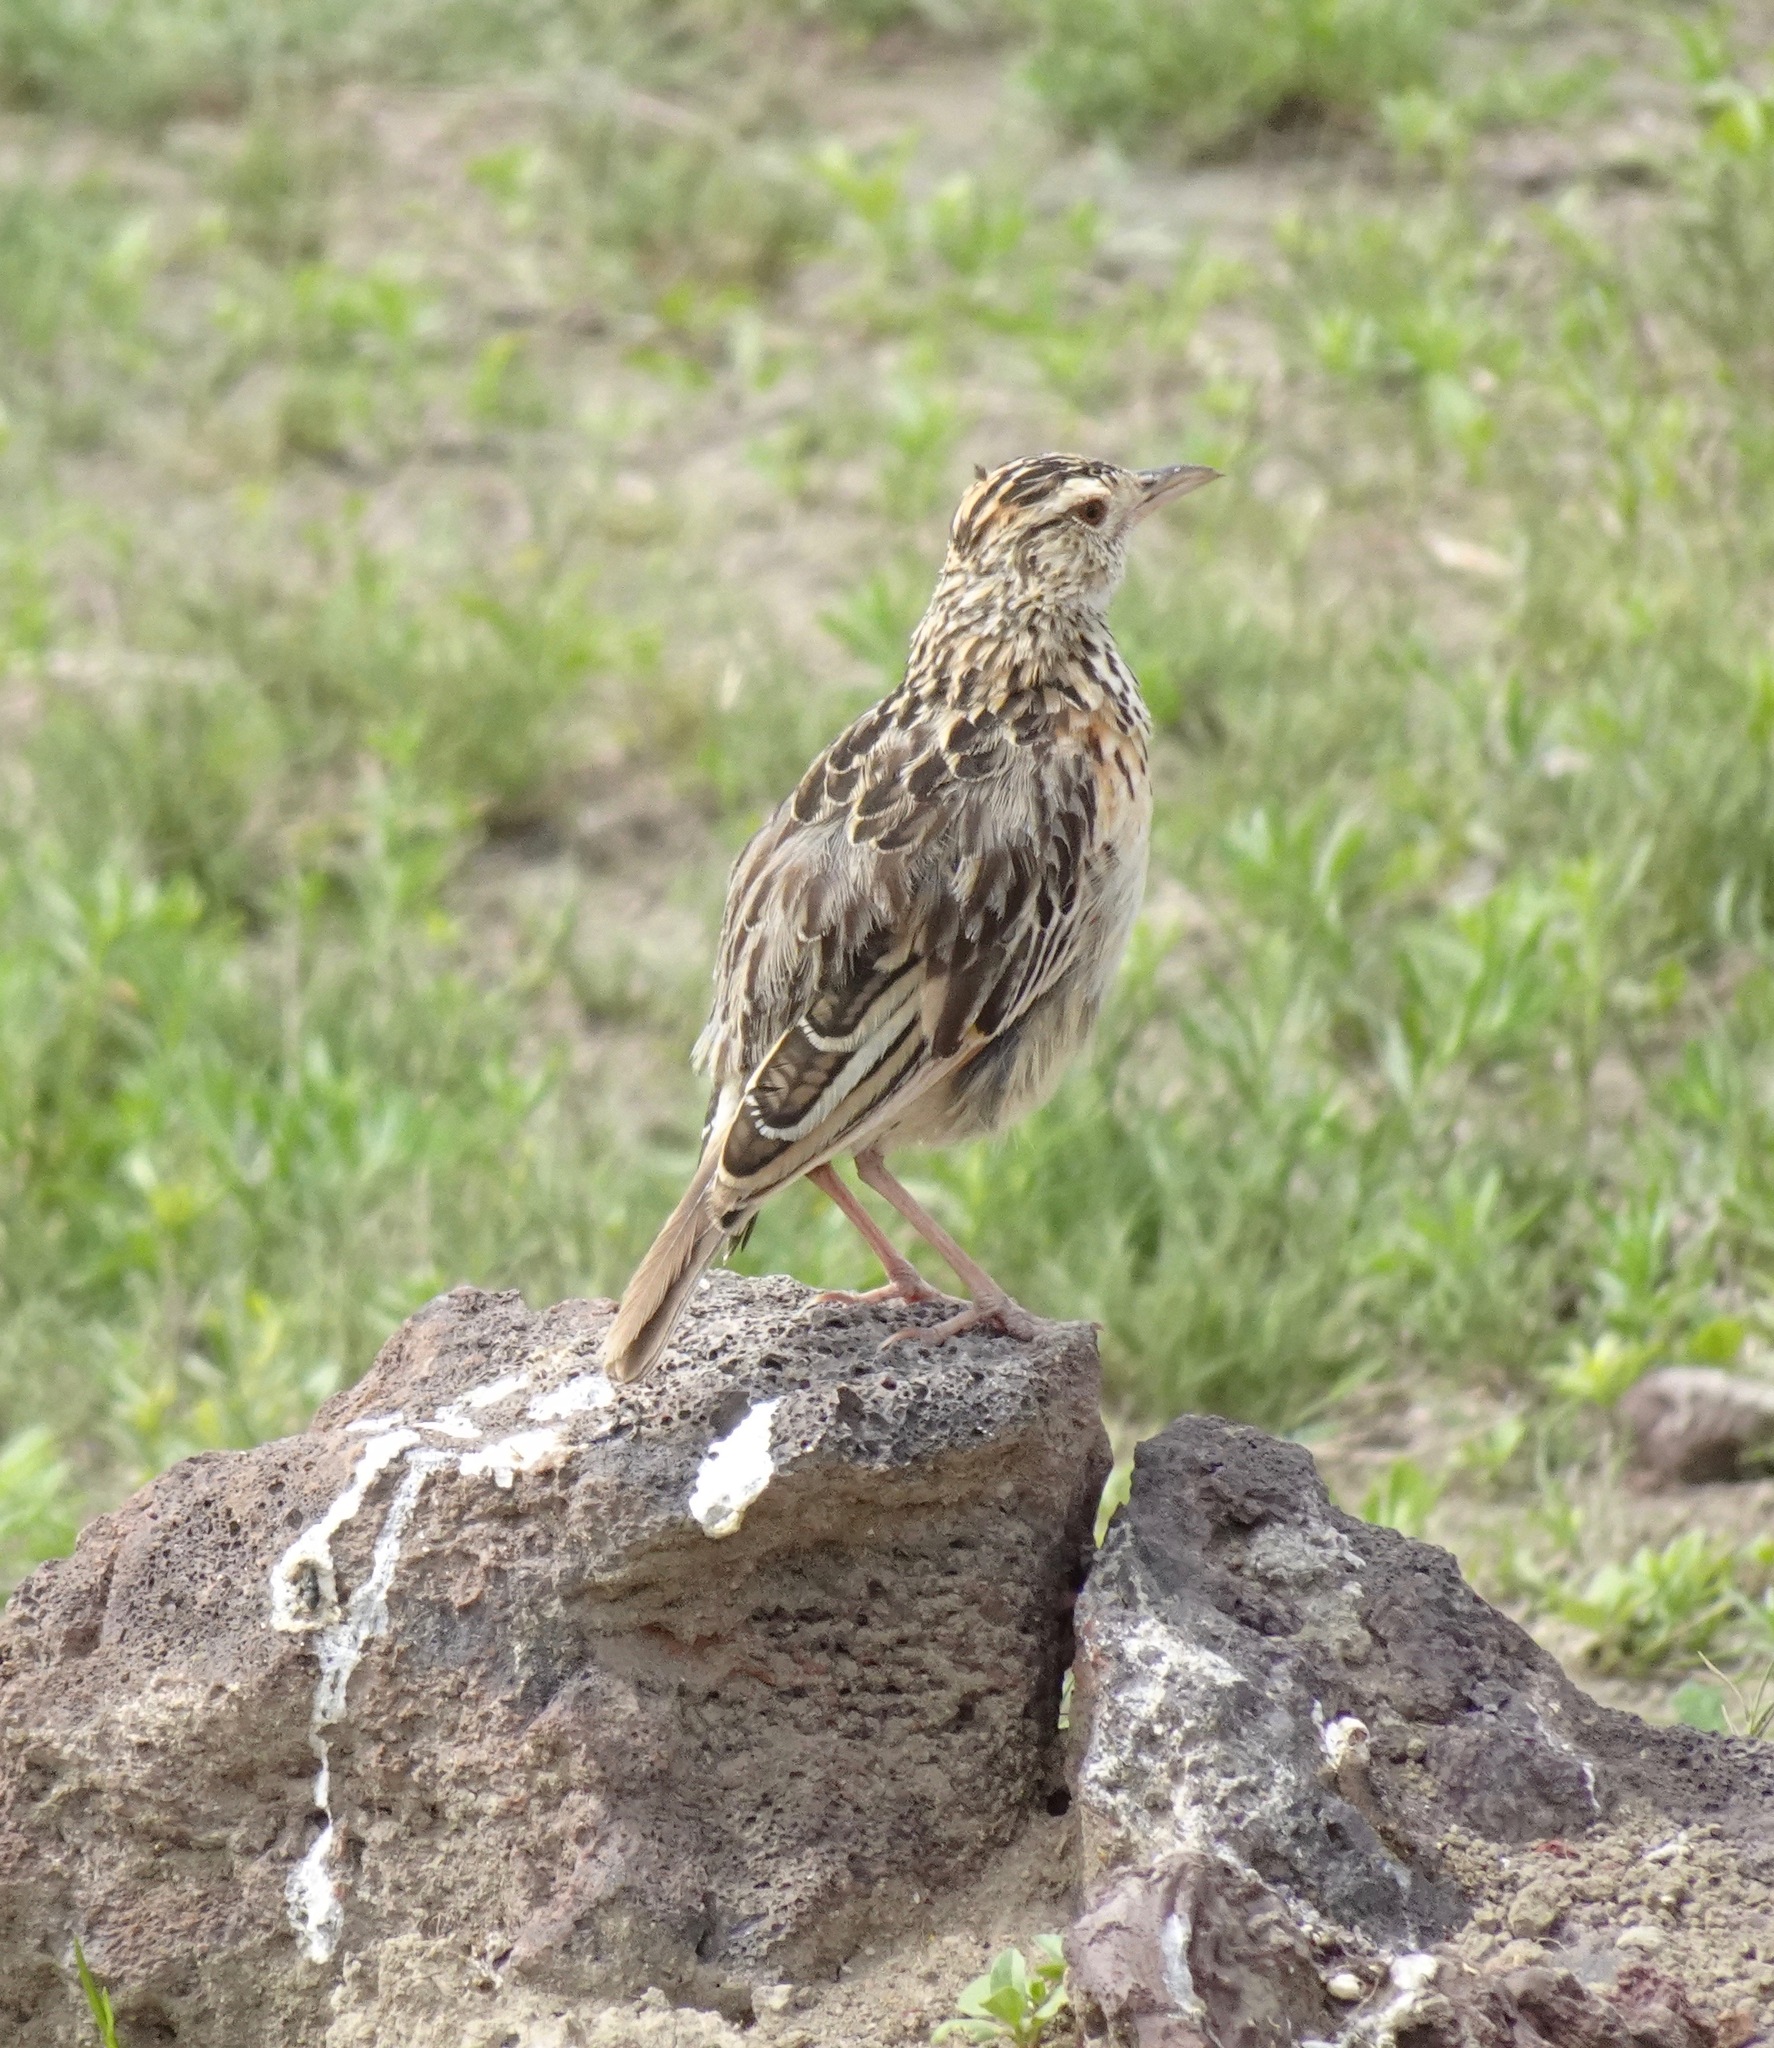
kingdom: Animalia
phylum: Chordata
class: Aves
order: Passeriformes
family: Alaudidae
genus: Mirafra
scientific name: Mirafra africana
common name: Rufous-naped lark
